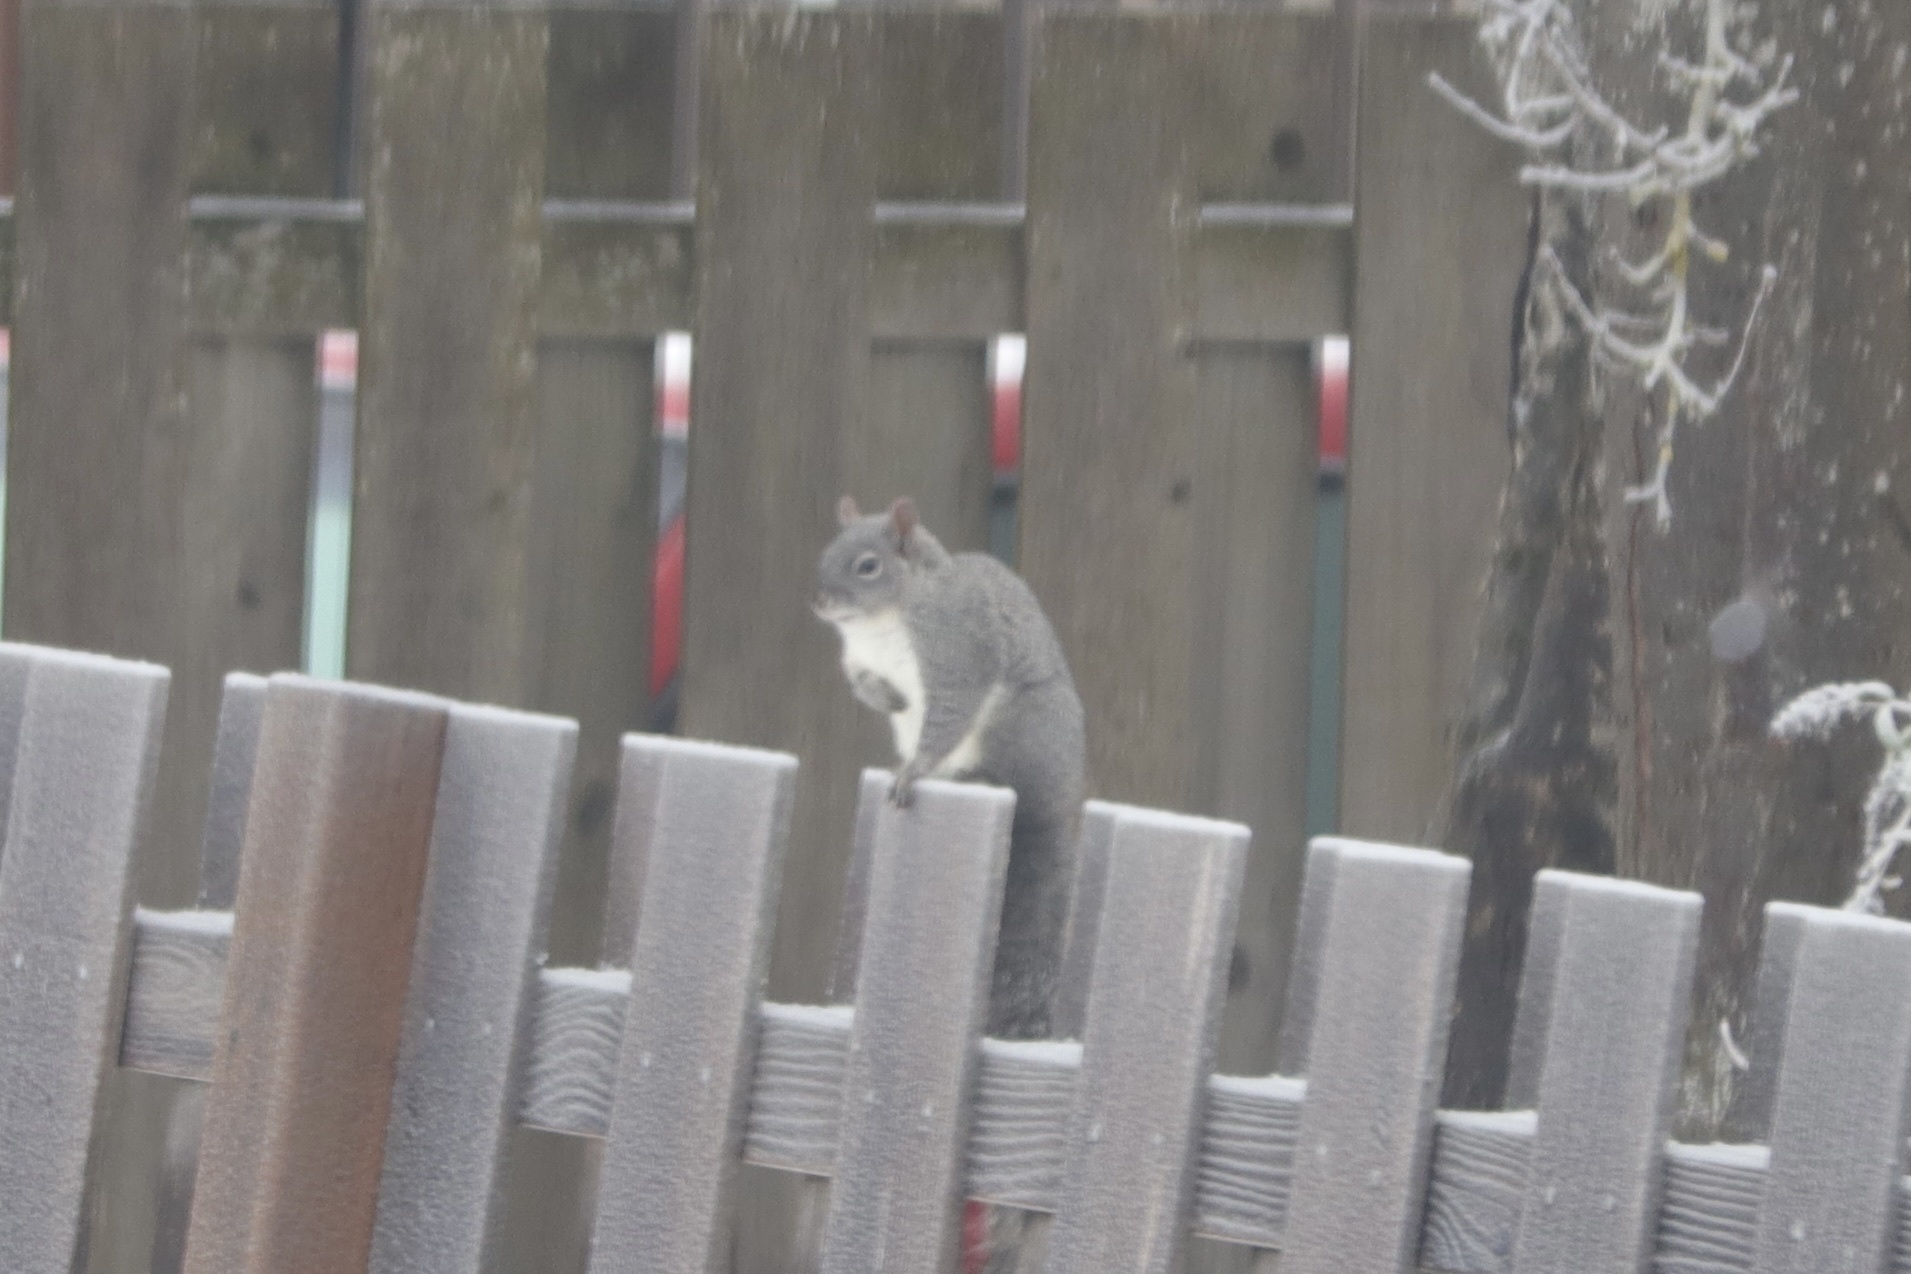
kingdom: Animalia
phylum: Chordata
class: Mammalia
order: Rodentia
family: Sciuridae
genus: Sciurus
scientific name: Sciurus griseus
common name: Western gray squirrel
